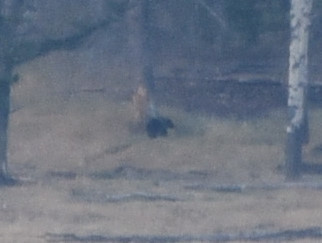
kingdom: Animalia
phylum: Chordata
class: Mammalia
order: Carnivora
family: Ursidae
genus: Ursus
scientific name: Ursus arctos
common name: Brown bear
